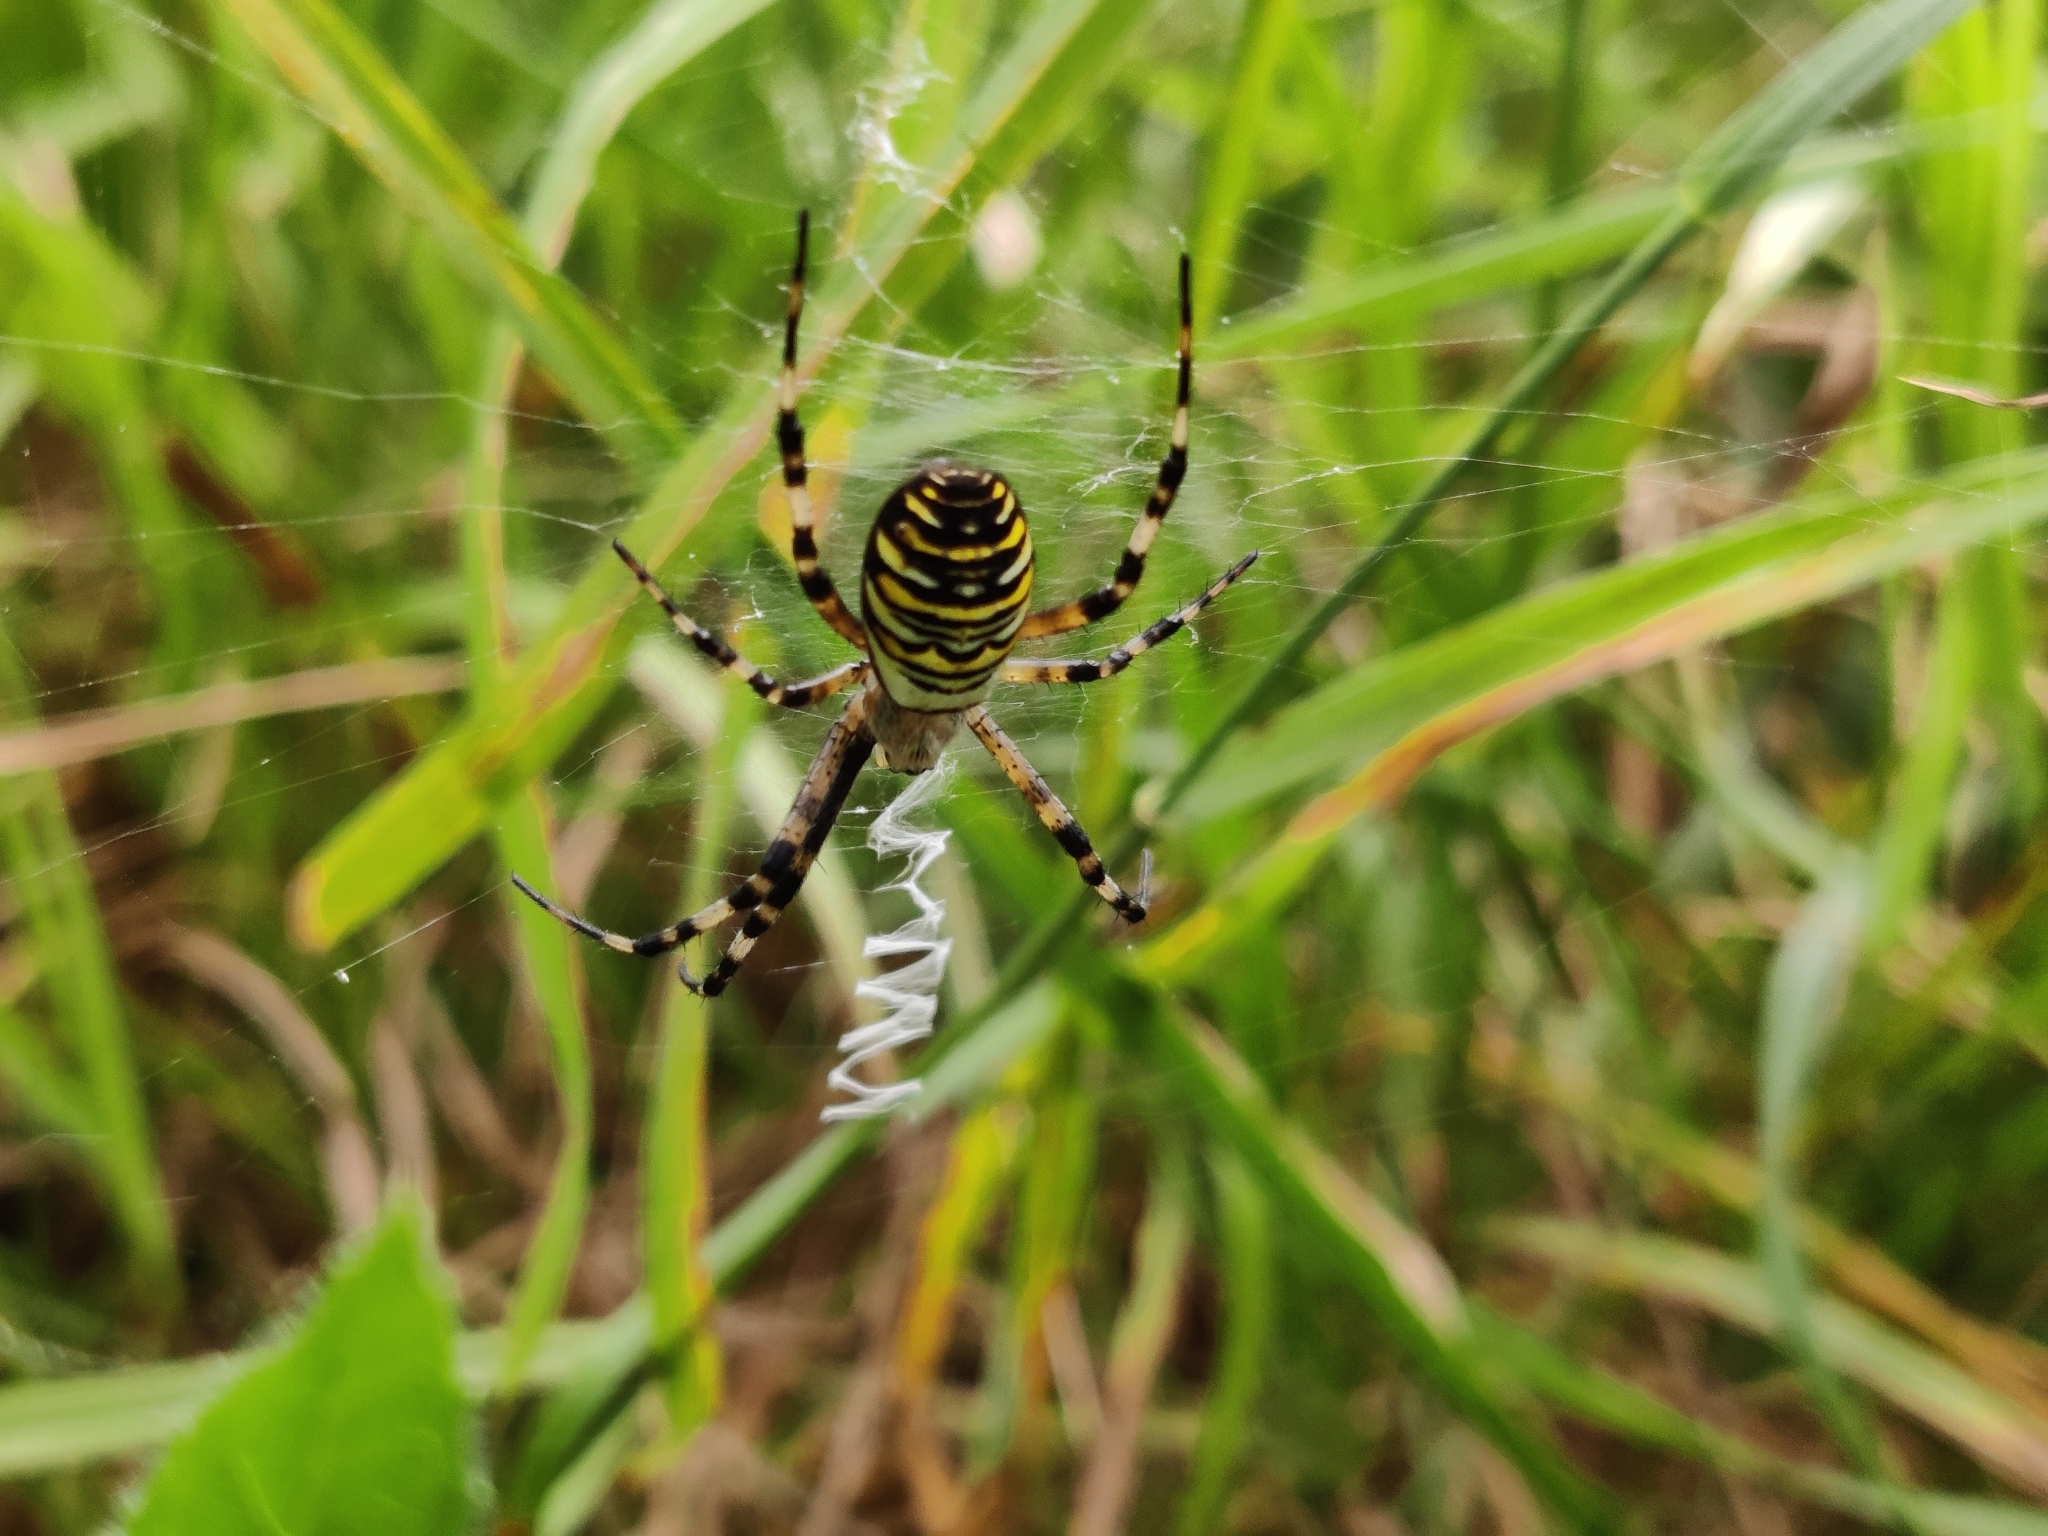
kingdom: Animalia
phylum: Arthropoda
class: Arachnida
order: Araneae
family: Araneidae
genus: Argiope
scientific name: Argiope bruennichi
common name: Wasp spider
